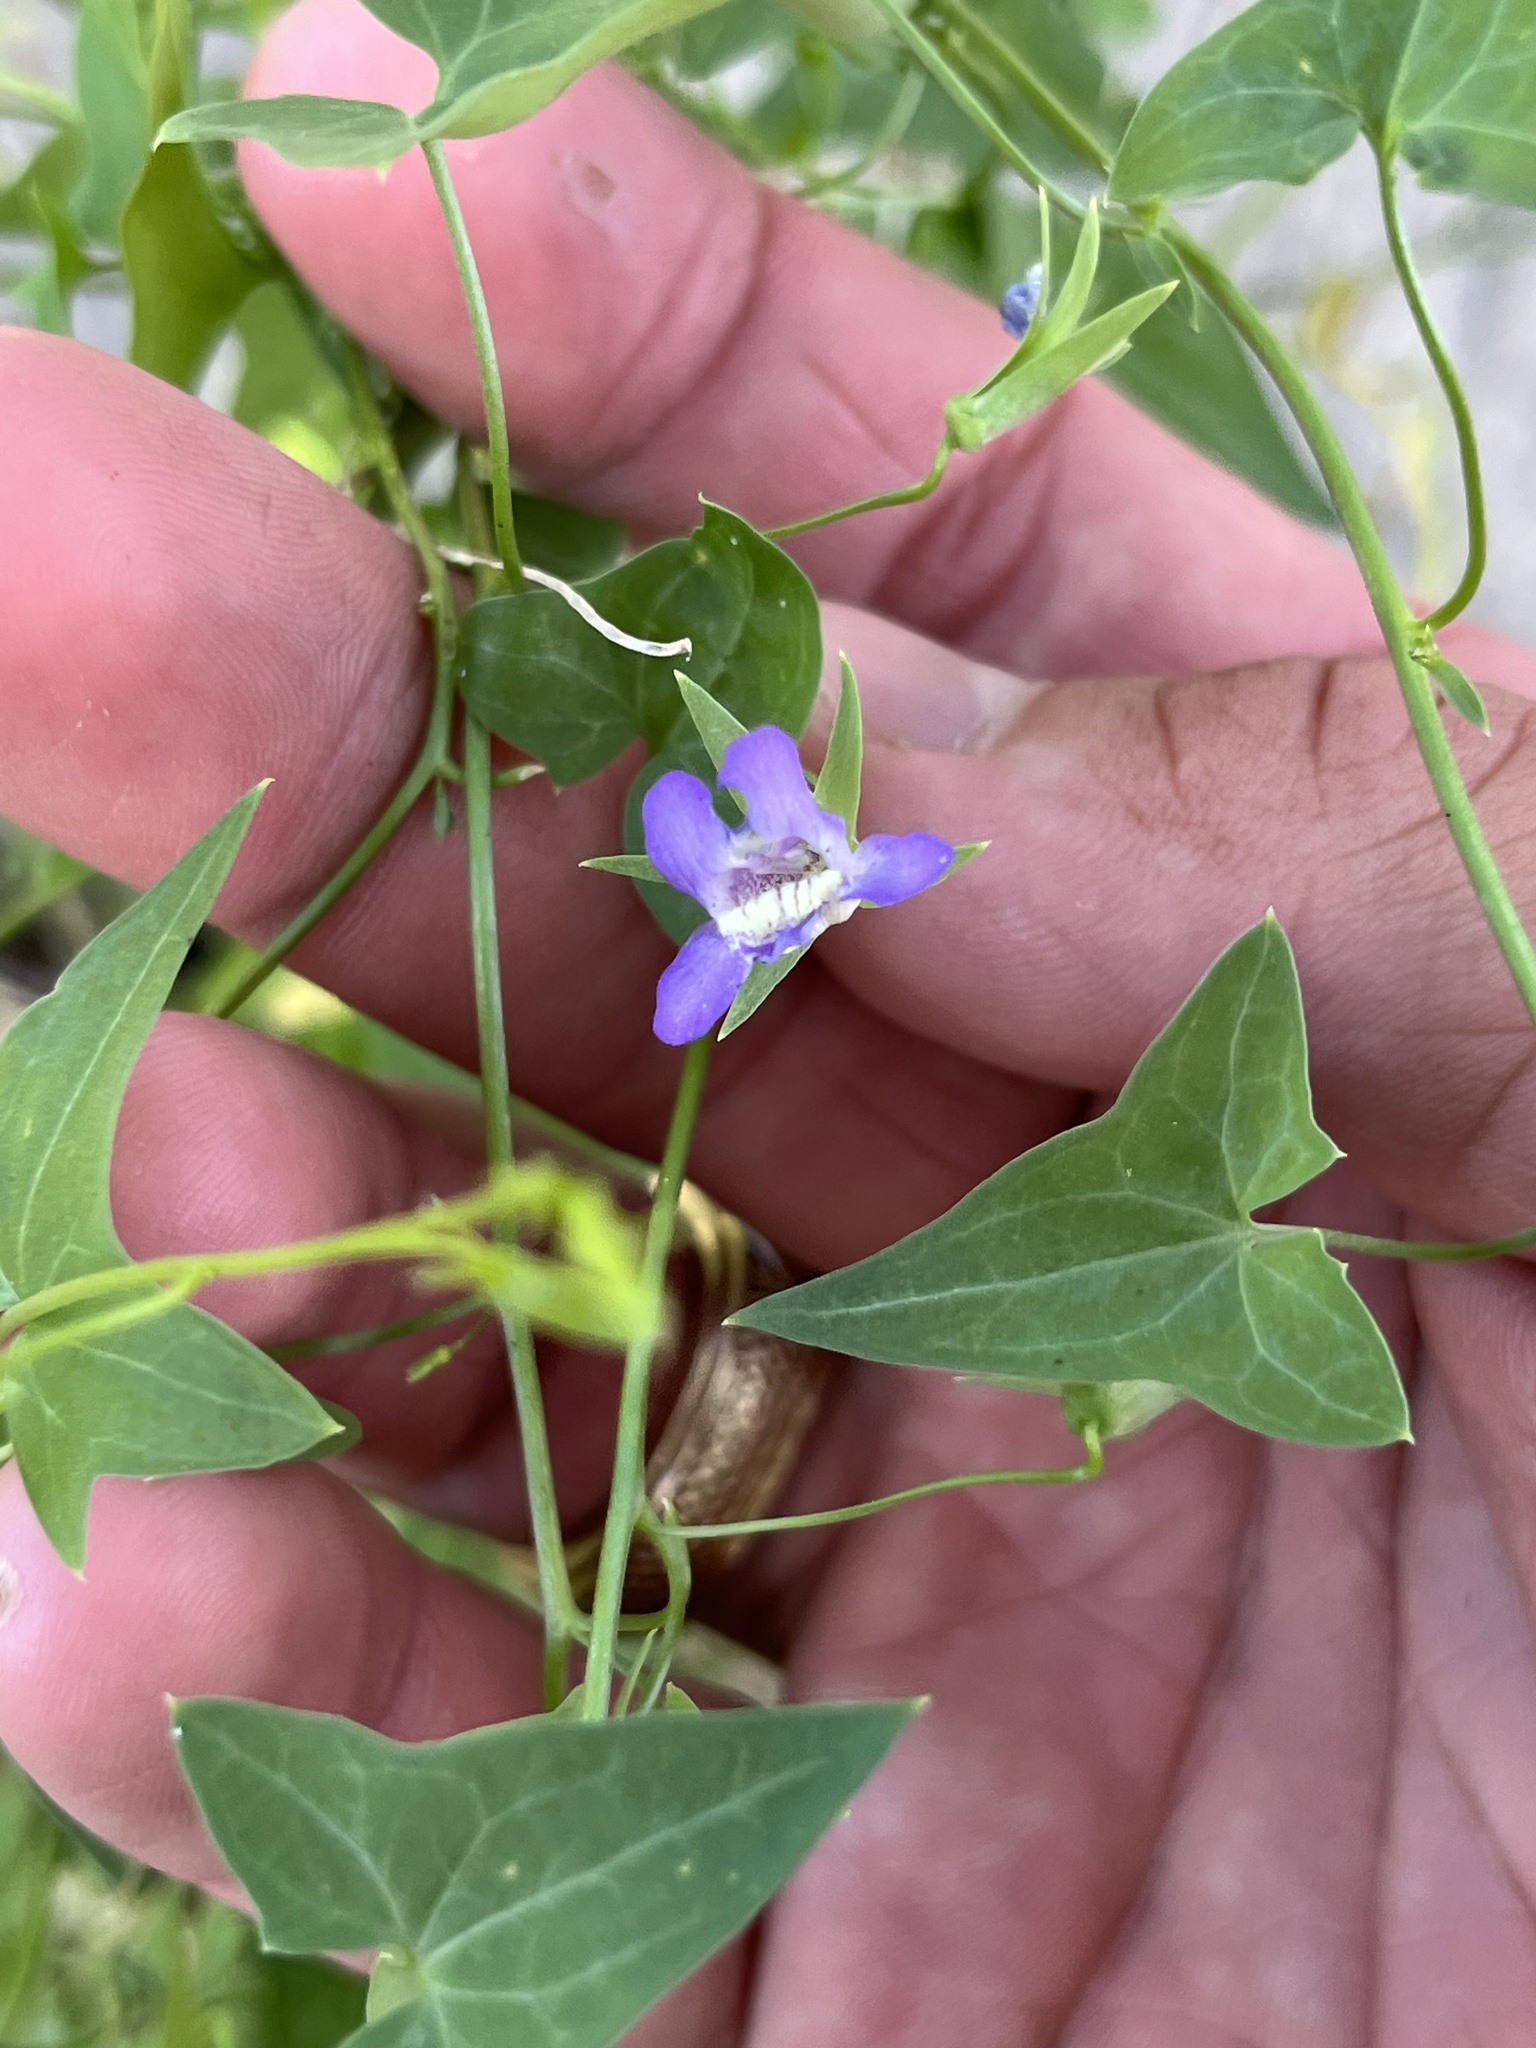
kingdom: Plantae
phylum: Tracheophyta
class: Magnoliopsida
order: Lamiales
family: Plantaginaceae
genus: Maurandella
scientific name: Maurandella antirrhiniflora
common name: Violet twining-snapdragon
